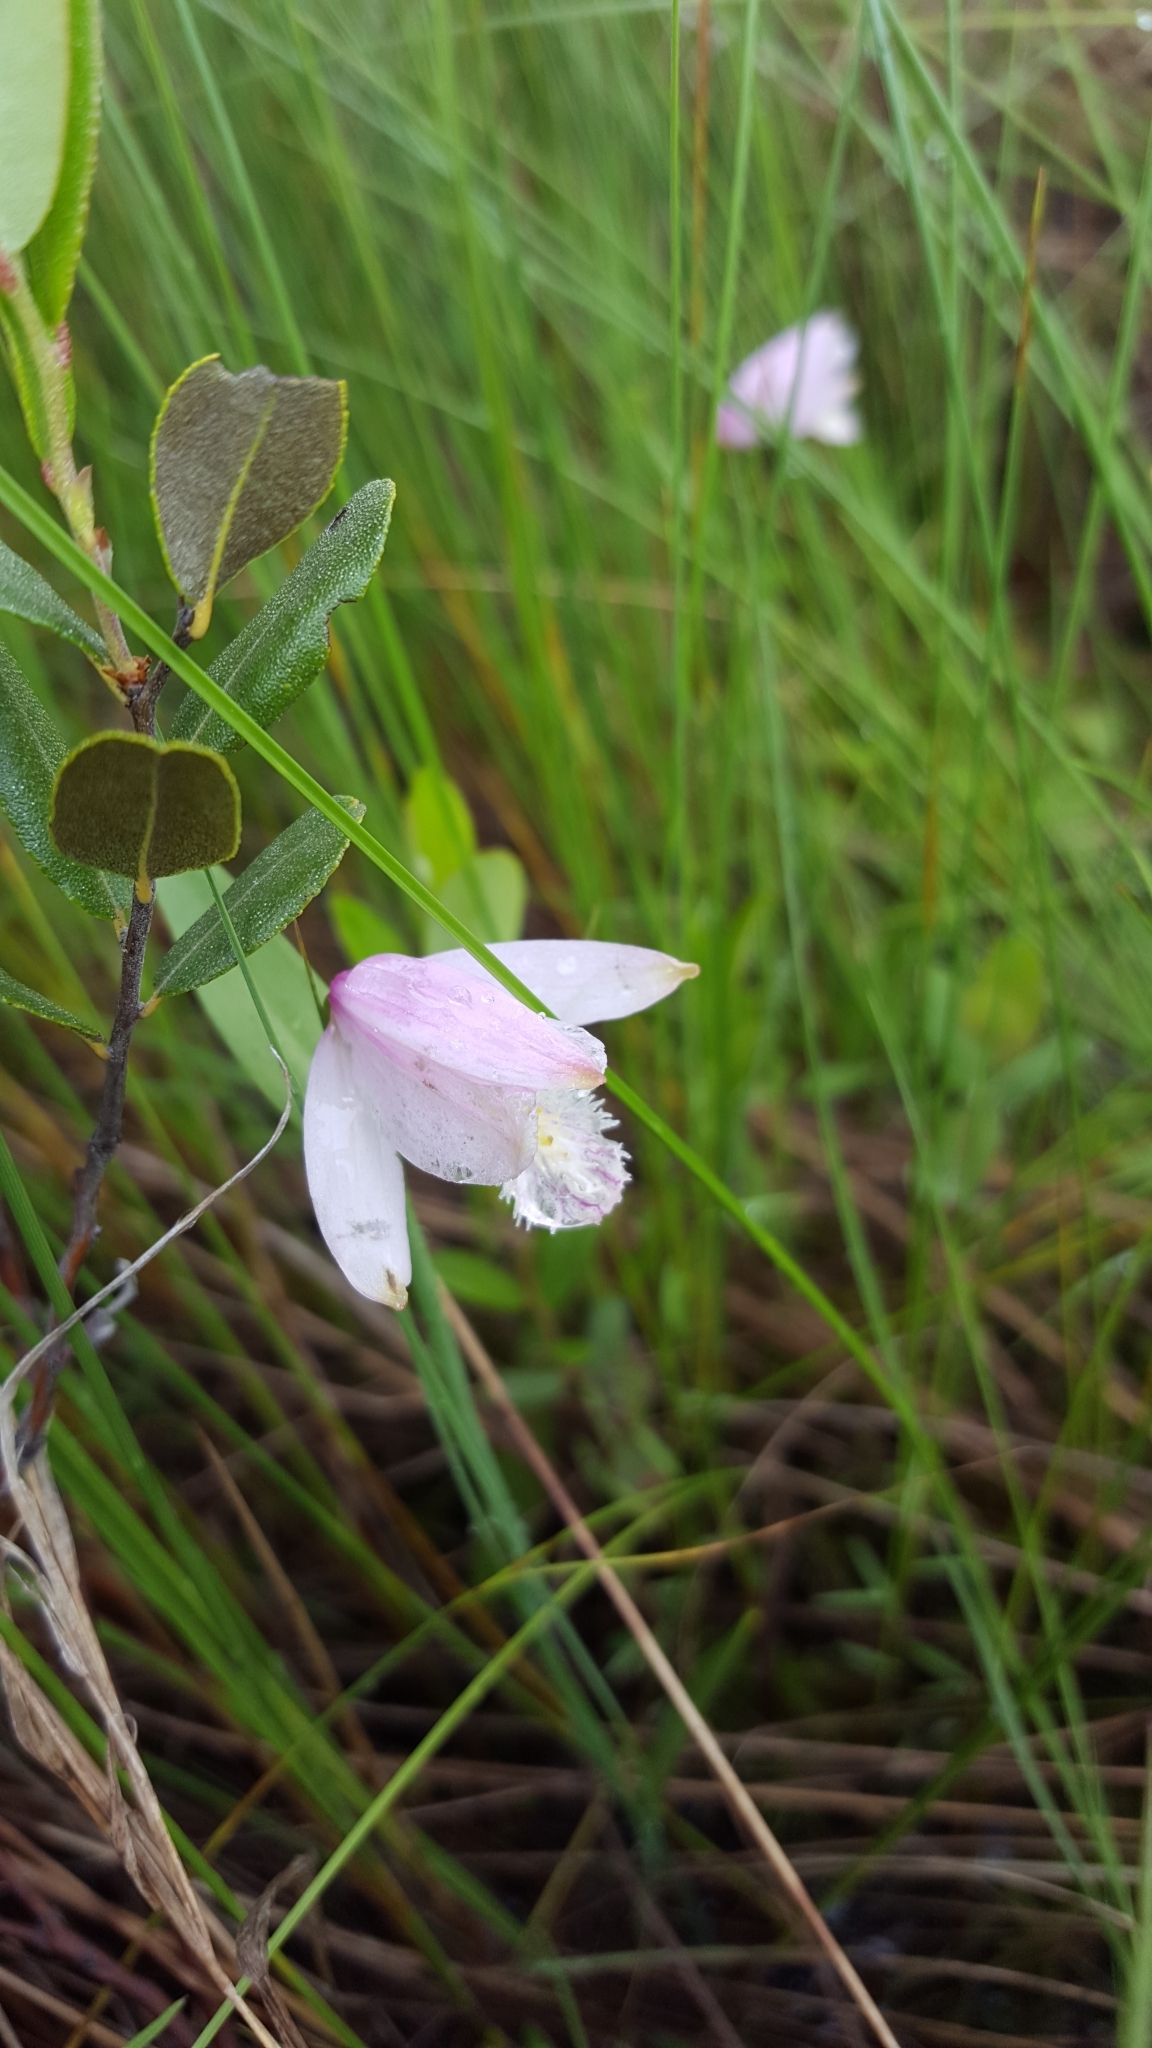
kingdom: Plantae
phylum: Tracheophyta
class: Liliopsida
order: Asparagales
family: Orchidaceae
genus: Pogonia
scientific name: Pogonia ophioglossoides
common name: Rose pogonia
